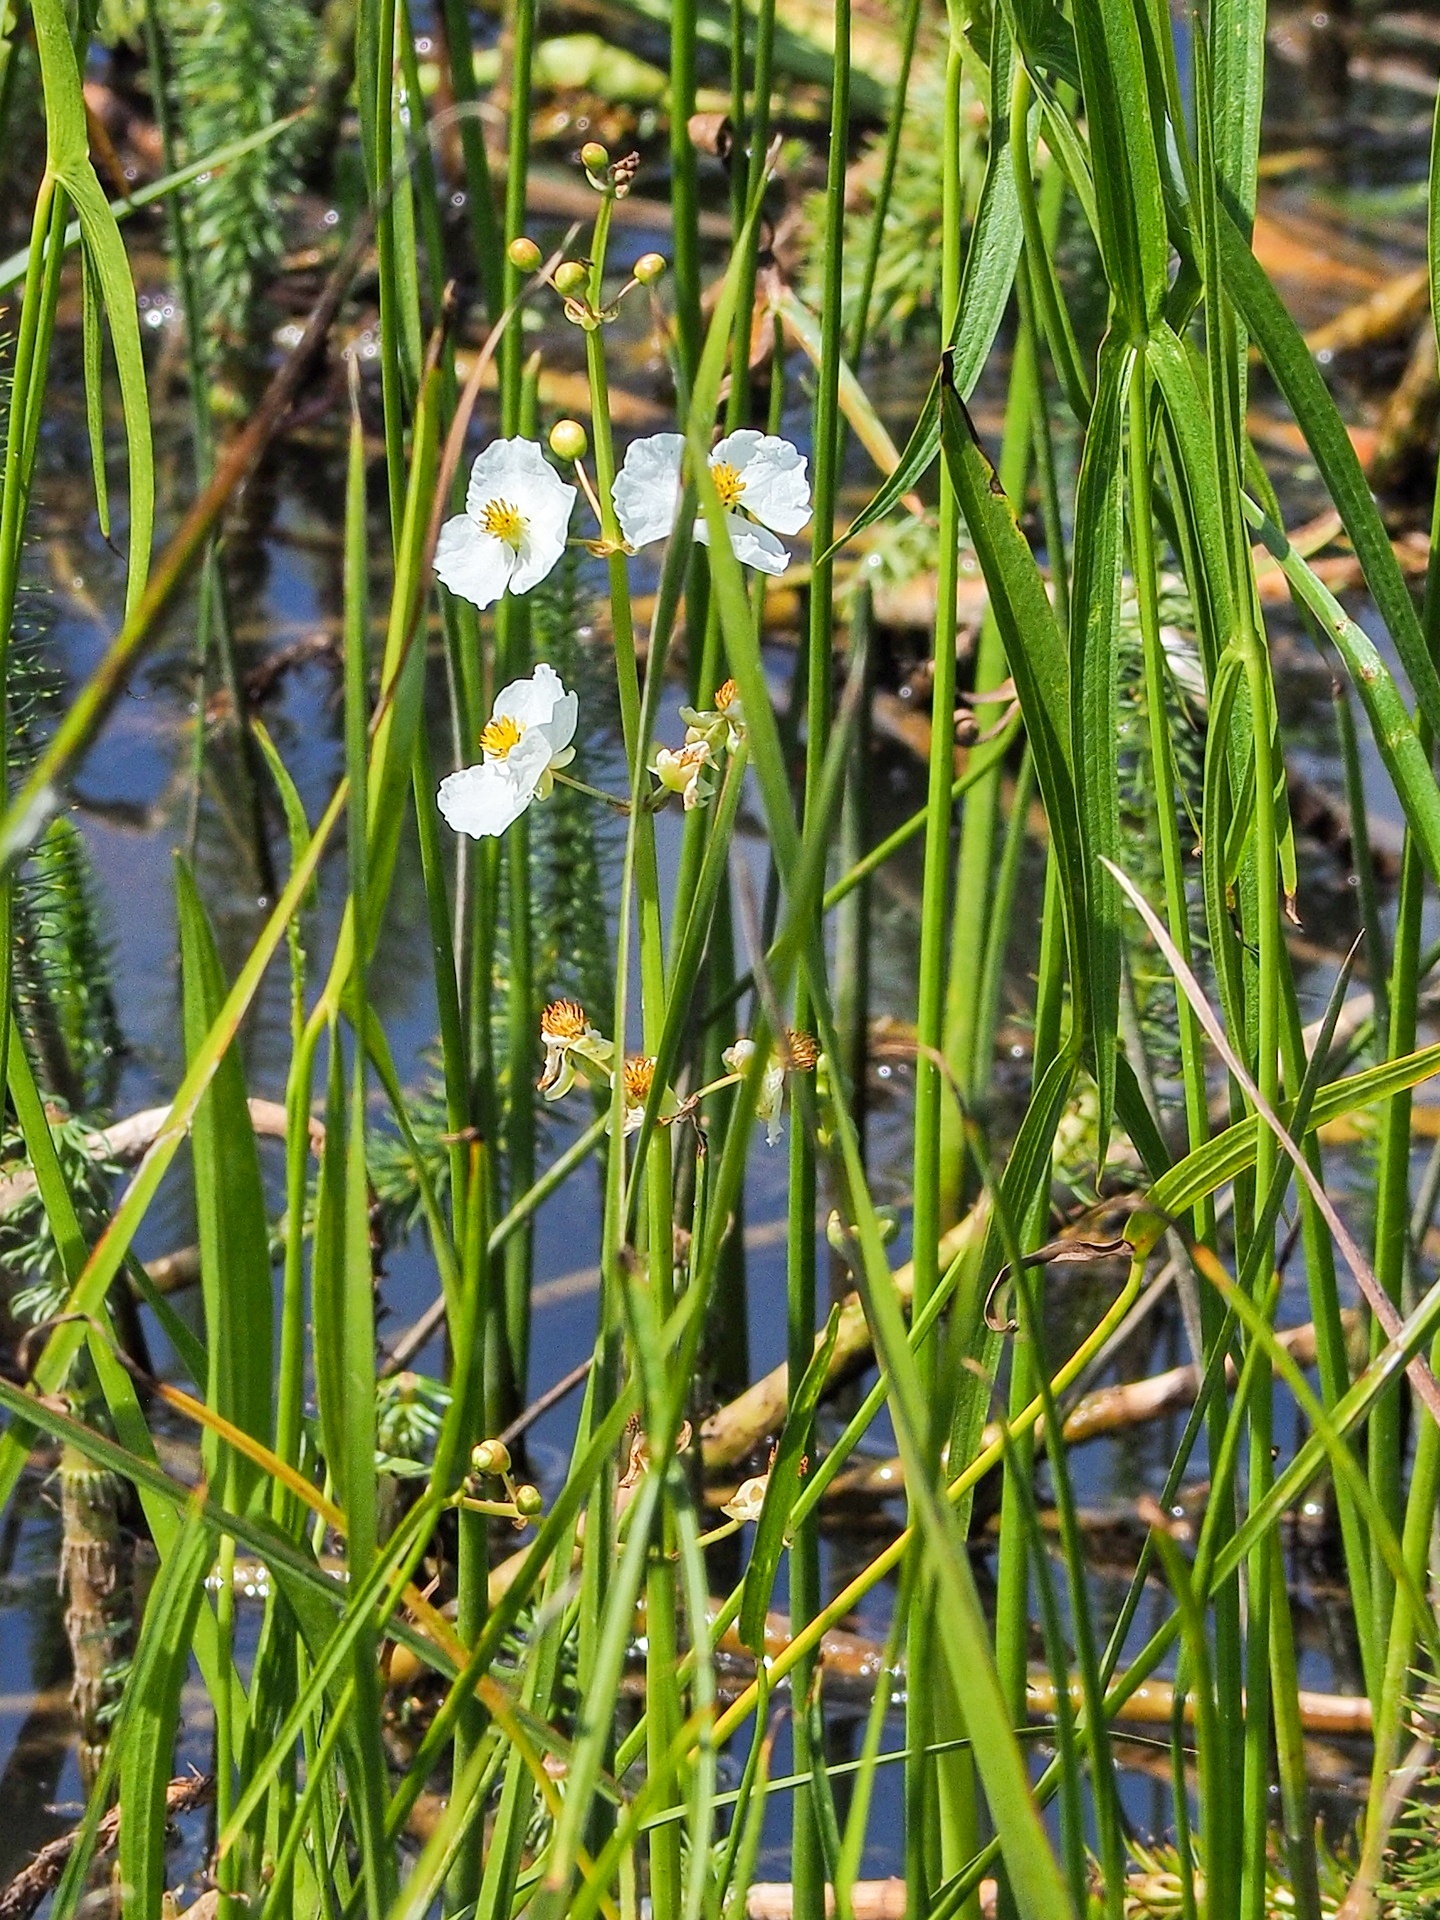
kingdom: Plantae
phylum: Tracheophyta
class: Liliopsida
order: Alismatales
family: Alismataceae
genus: Sagittaria
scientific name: Sagittaria sagittifolia
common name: Arrowhead
